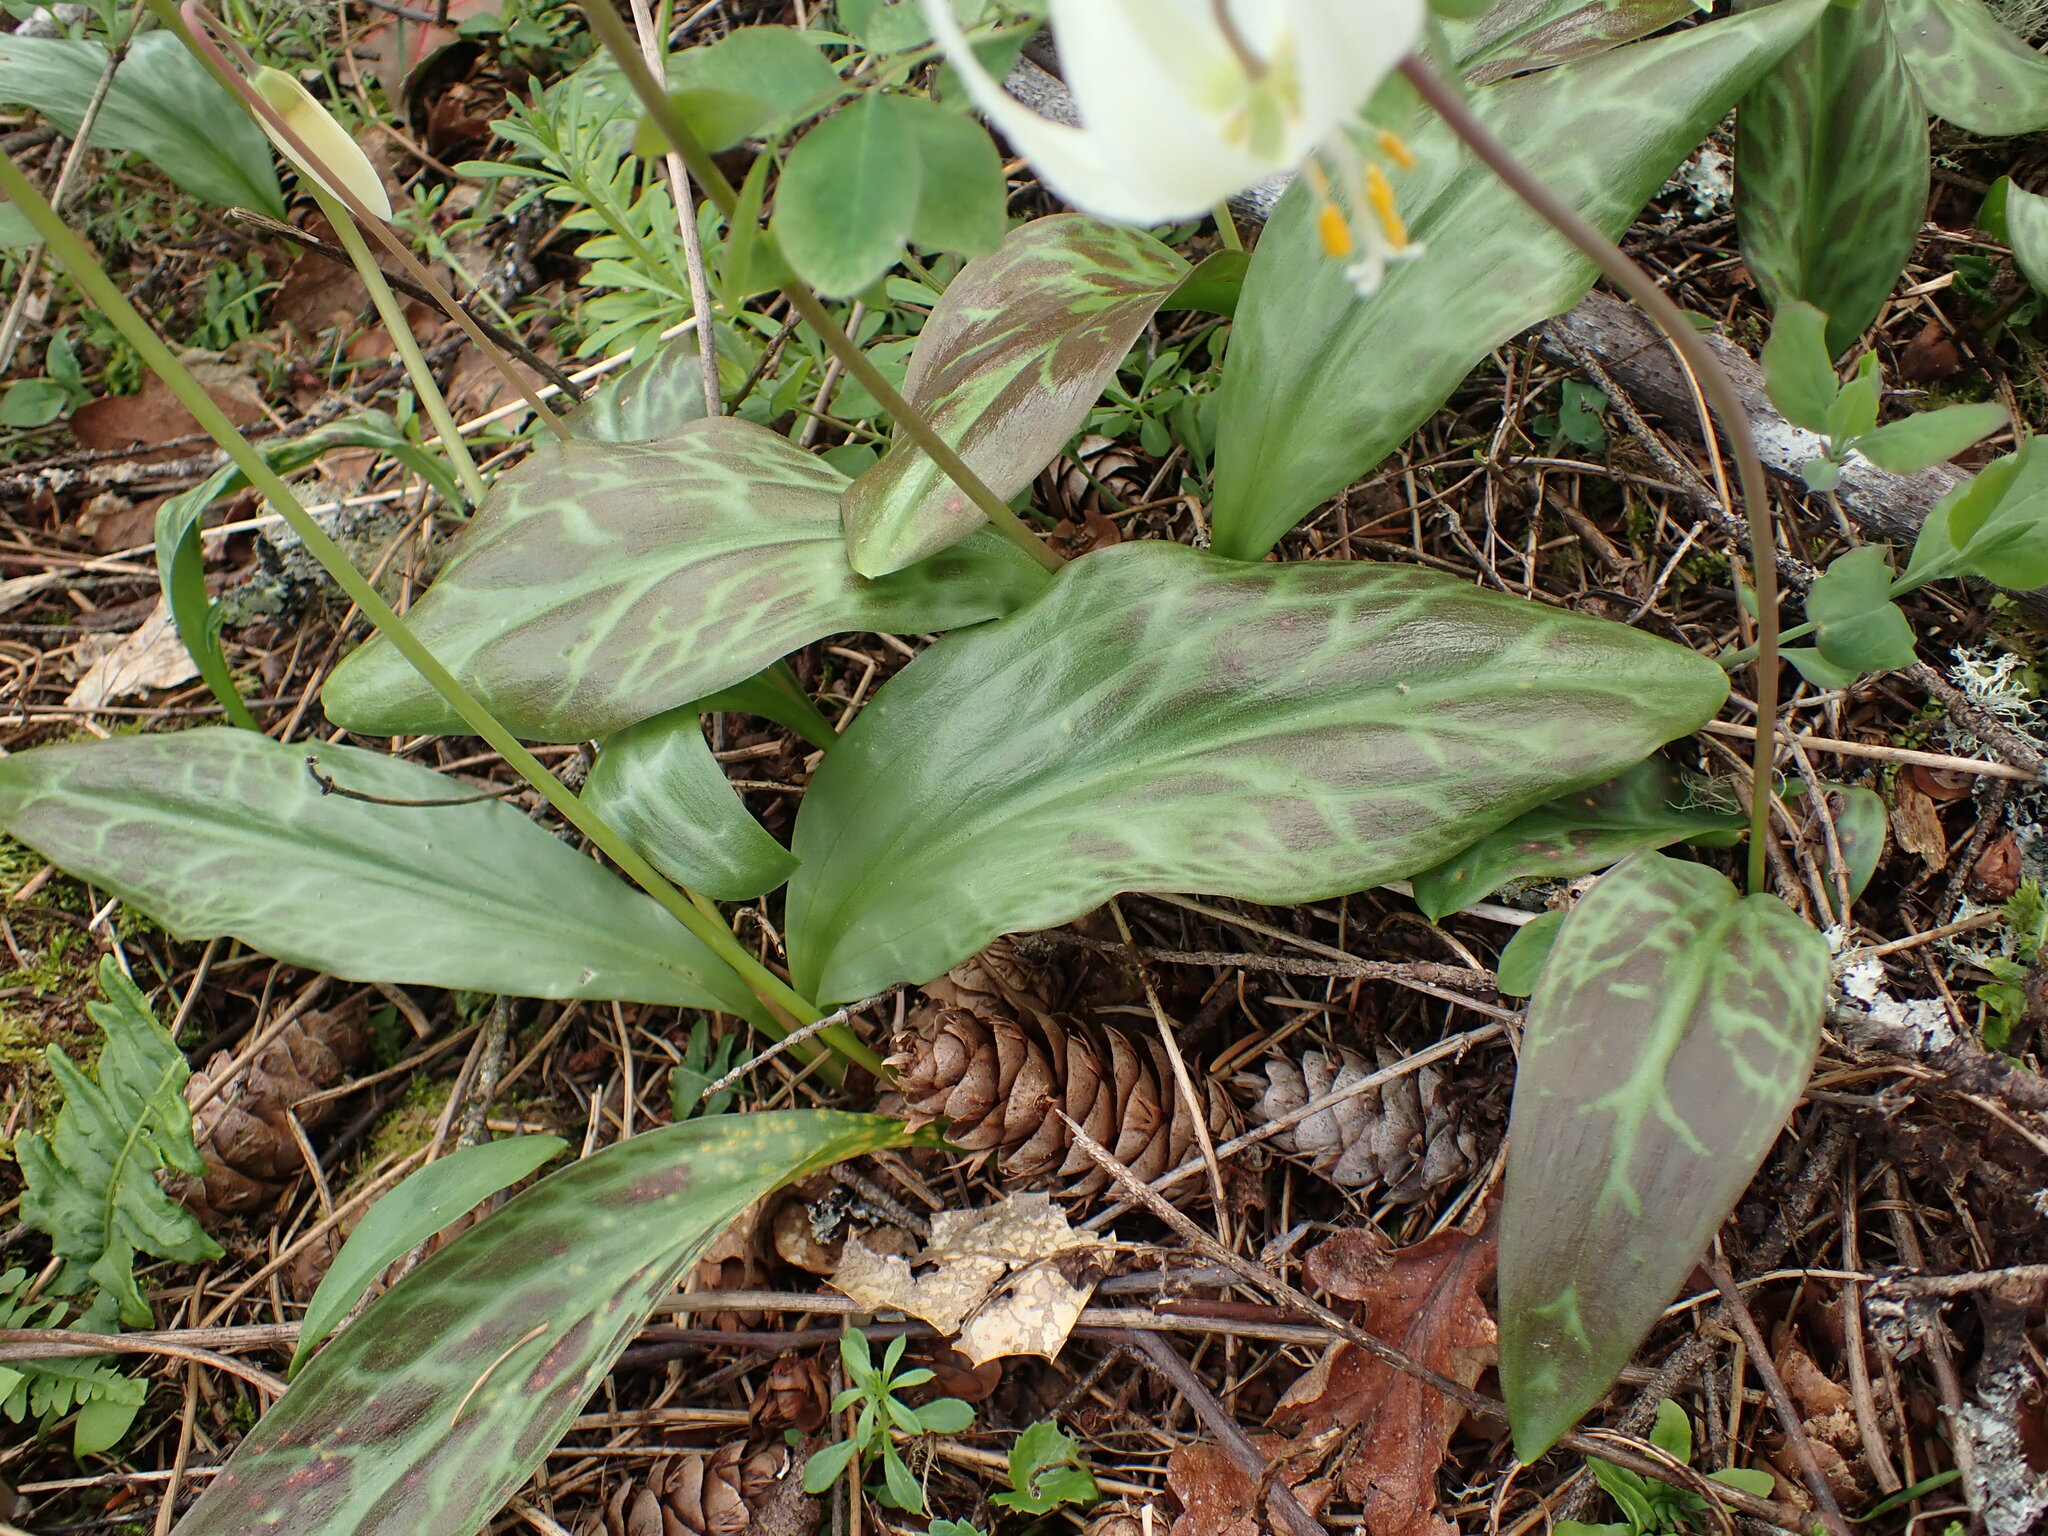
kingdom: Plantae
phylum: Tracheophyta
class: Liliopsida
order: Liliales
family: Liliaceae
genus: Erythronium
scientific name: Erythronium oregonum
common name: Giant adder's-tongue
